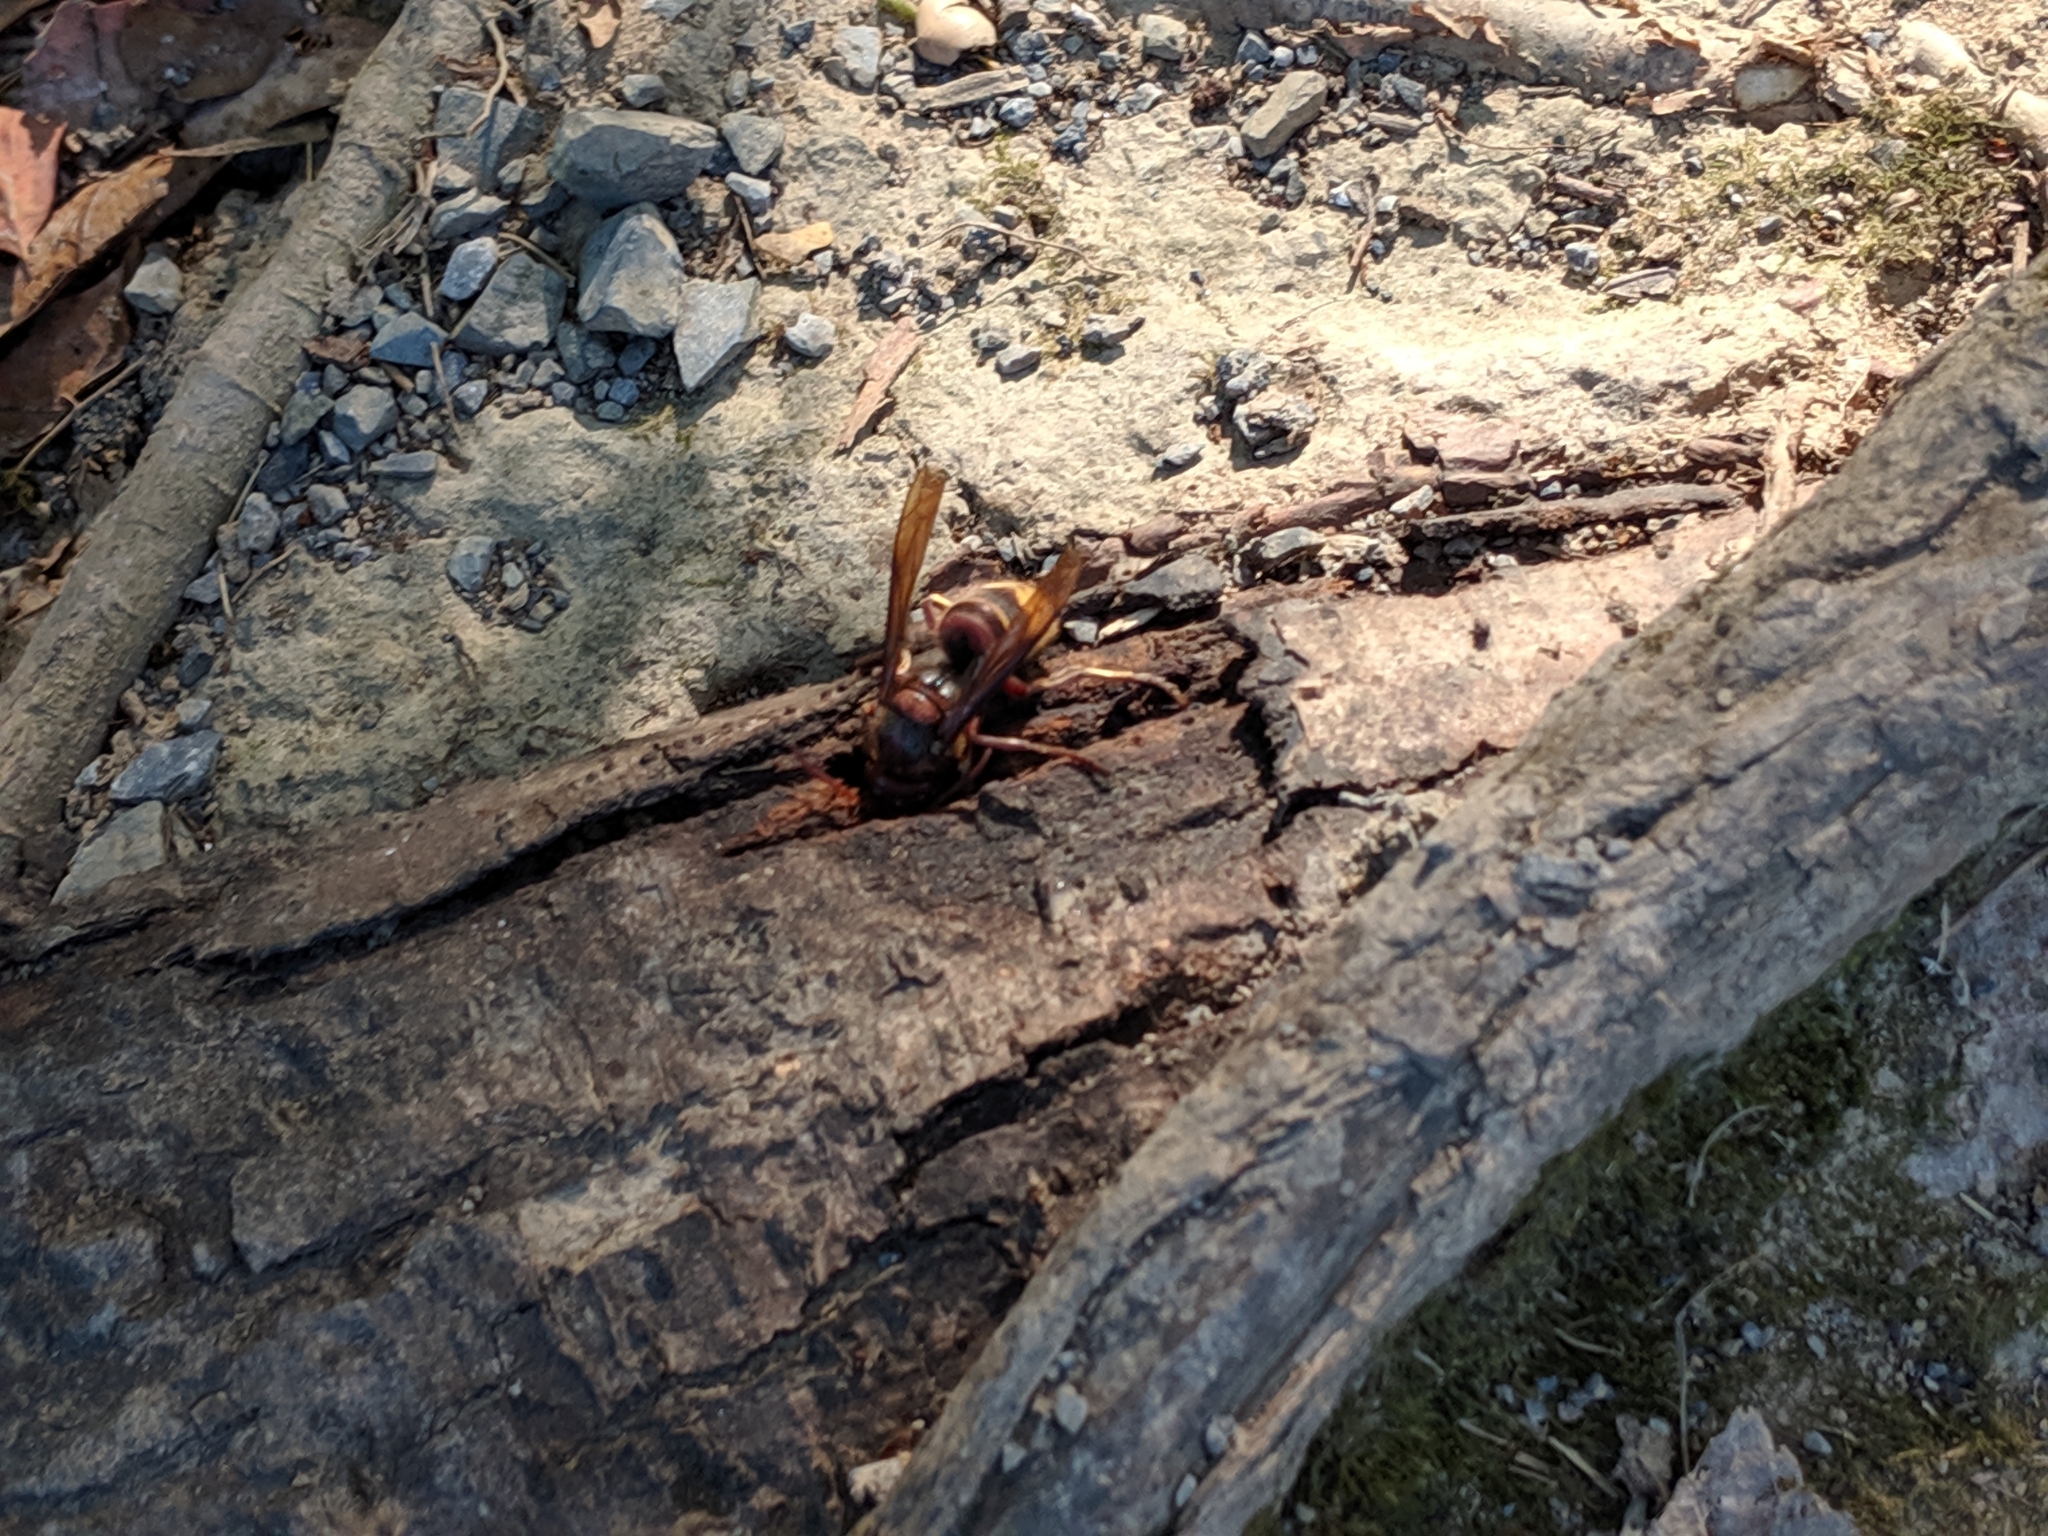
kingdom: Animalia
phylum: Arthropoda
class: Insecta
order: Hymenoptera
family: Vespidae
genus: Vespa
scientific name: Vespa crabro
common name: Hornet
